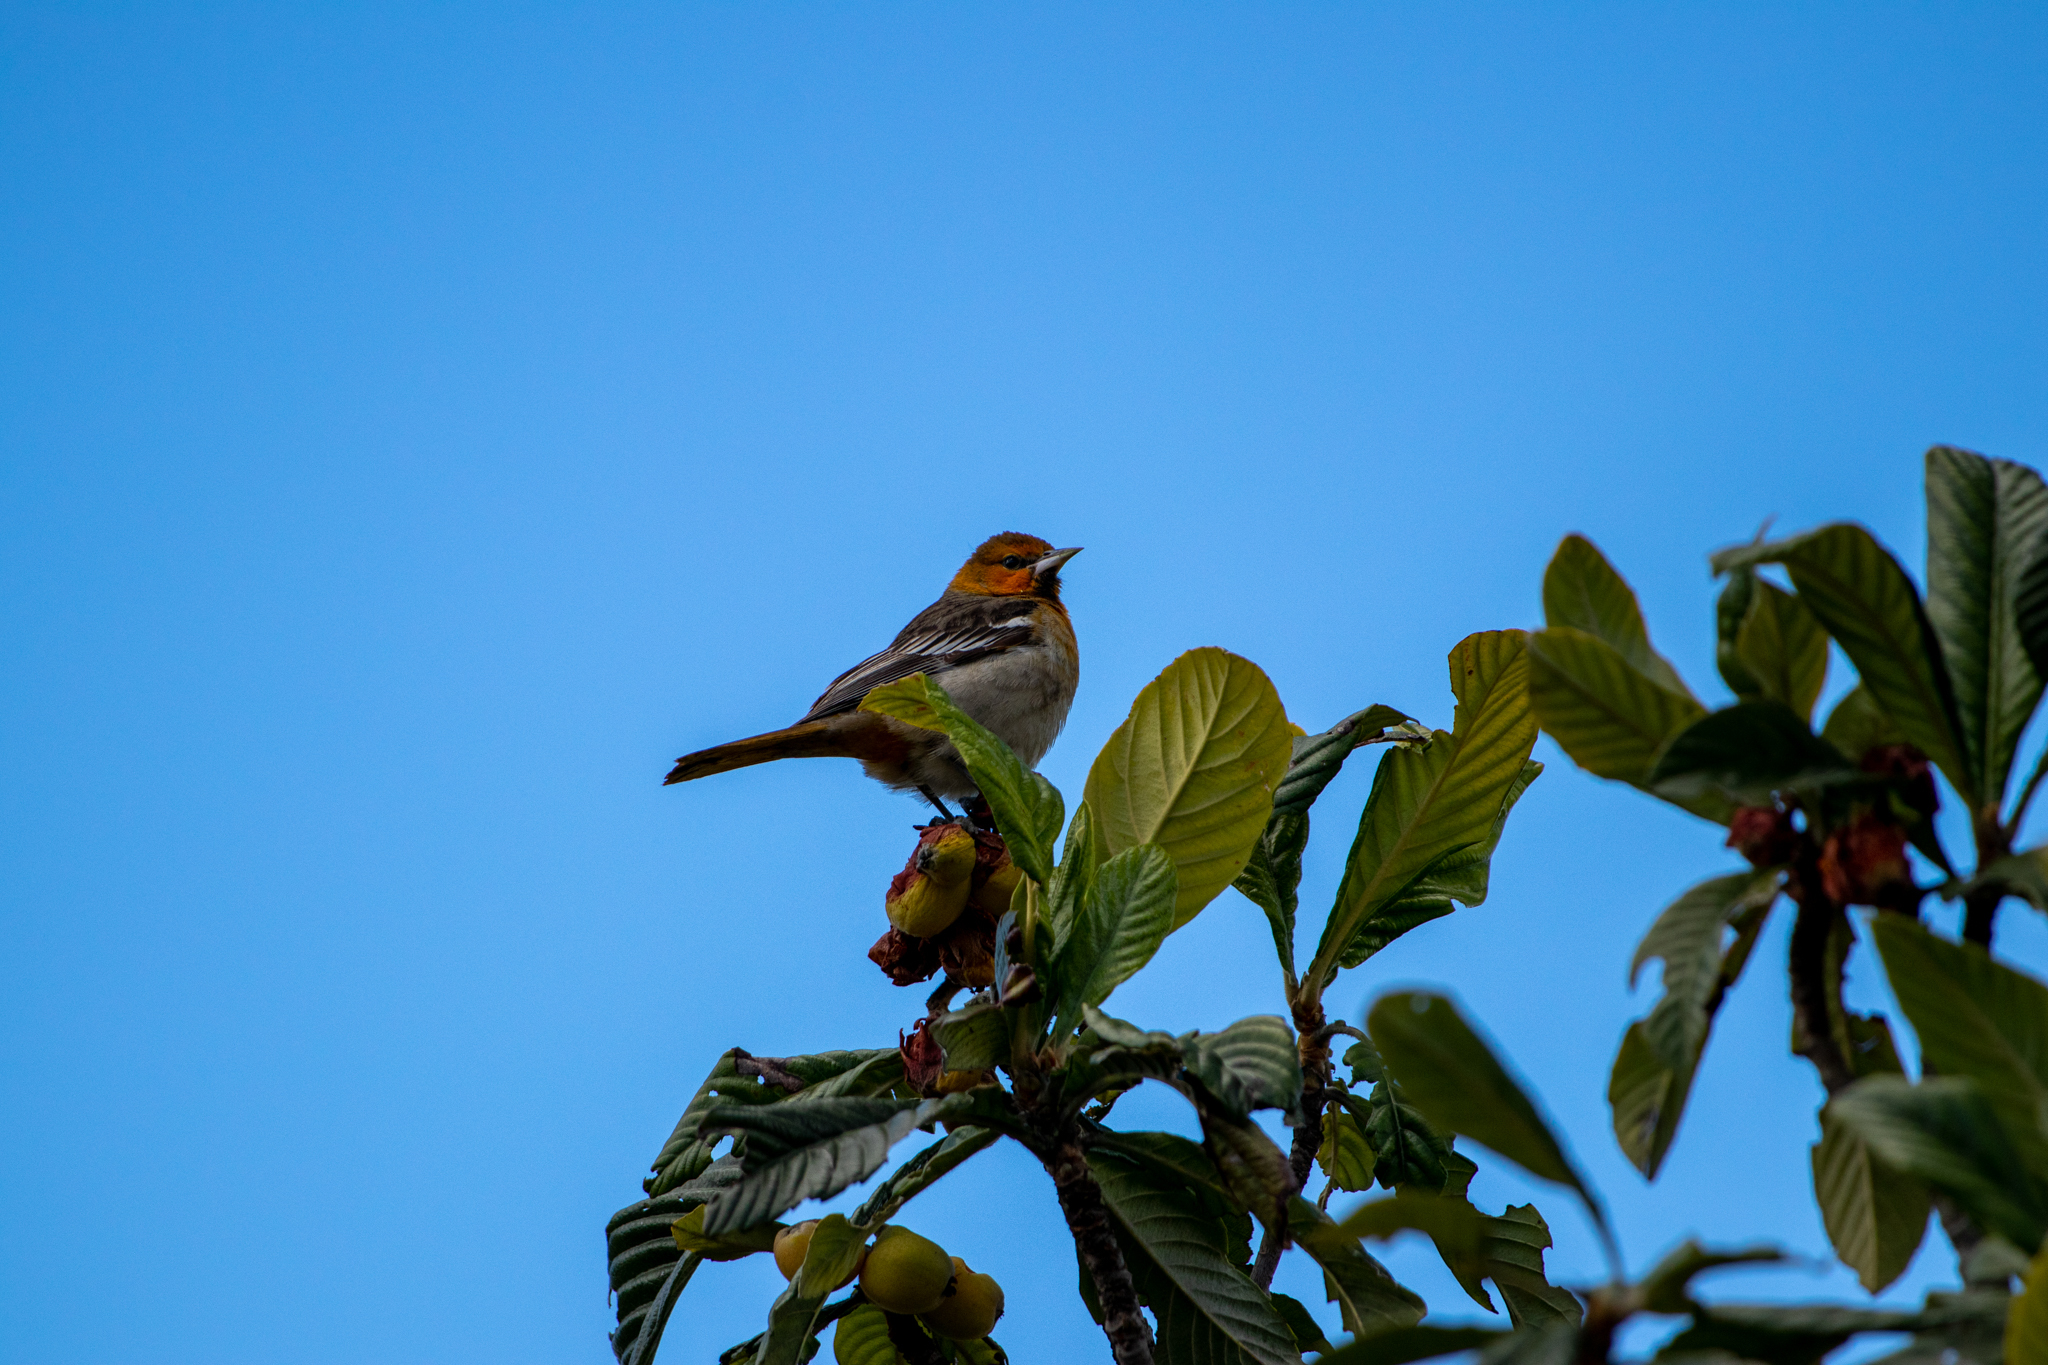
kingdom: Animalia
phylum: Chordata
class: Aves
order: Passeriformes
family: Icteridae
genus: Icterus
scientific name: Icterus bullockii
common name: Bullock's oriole
